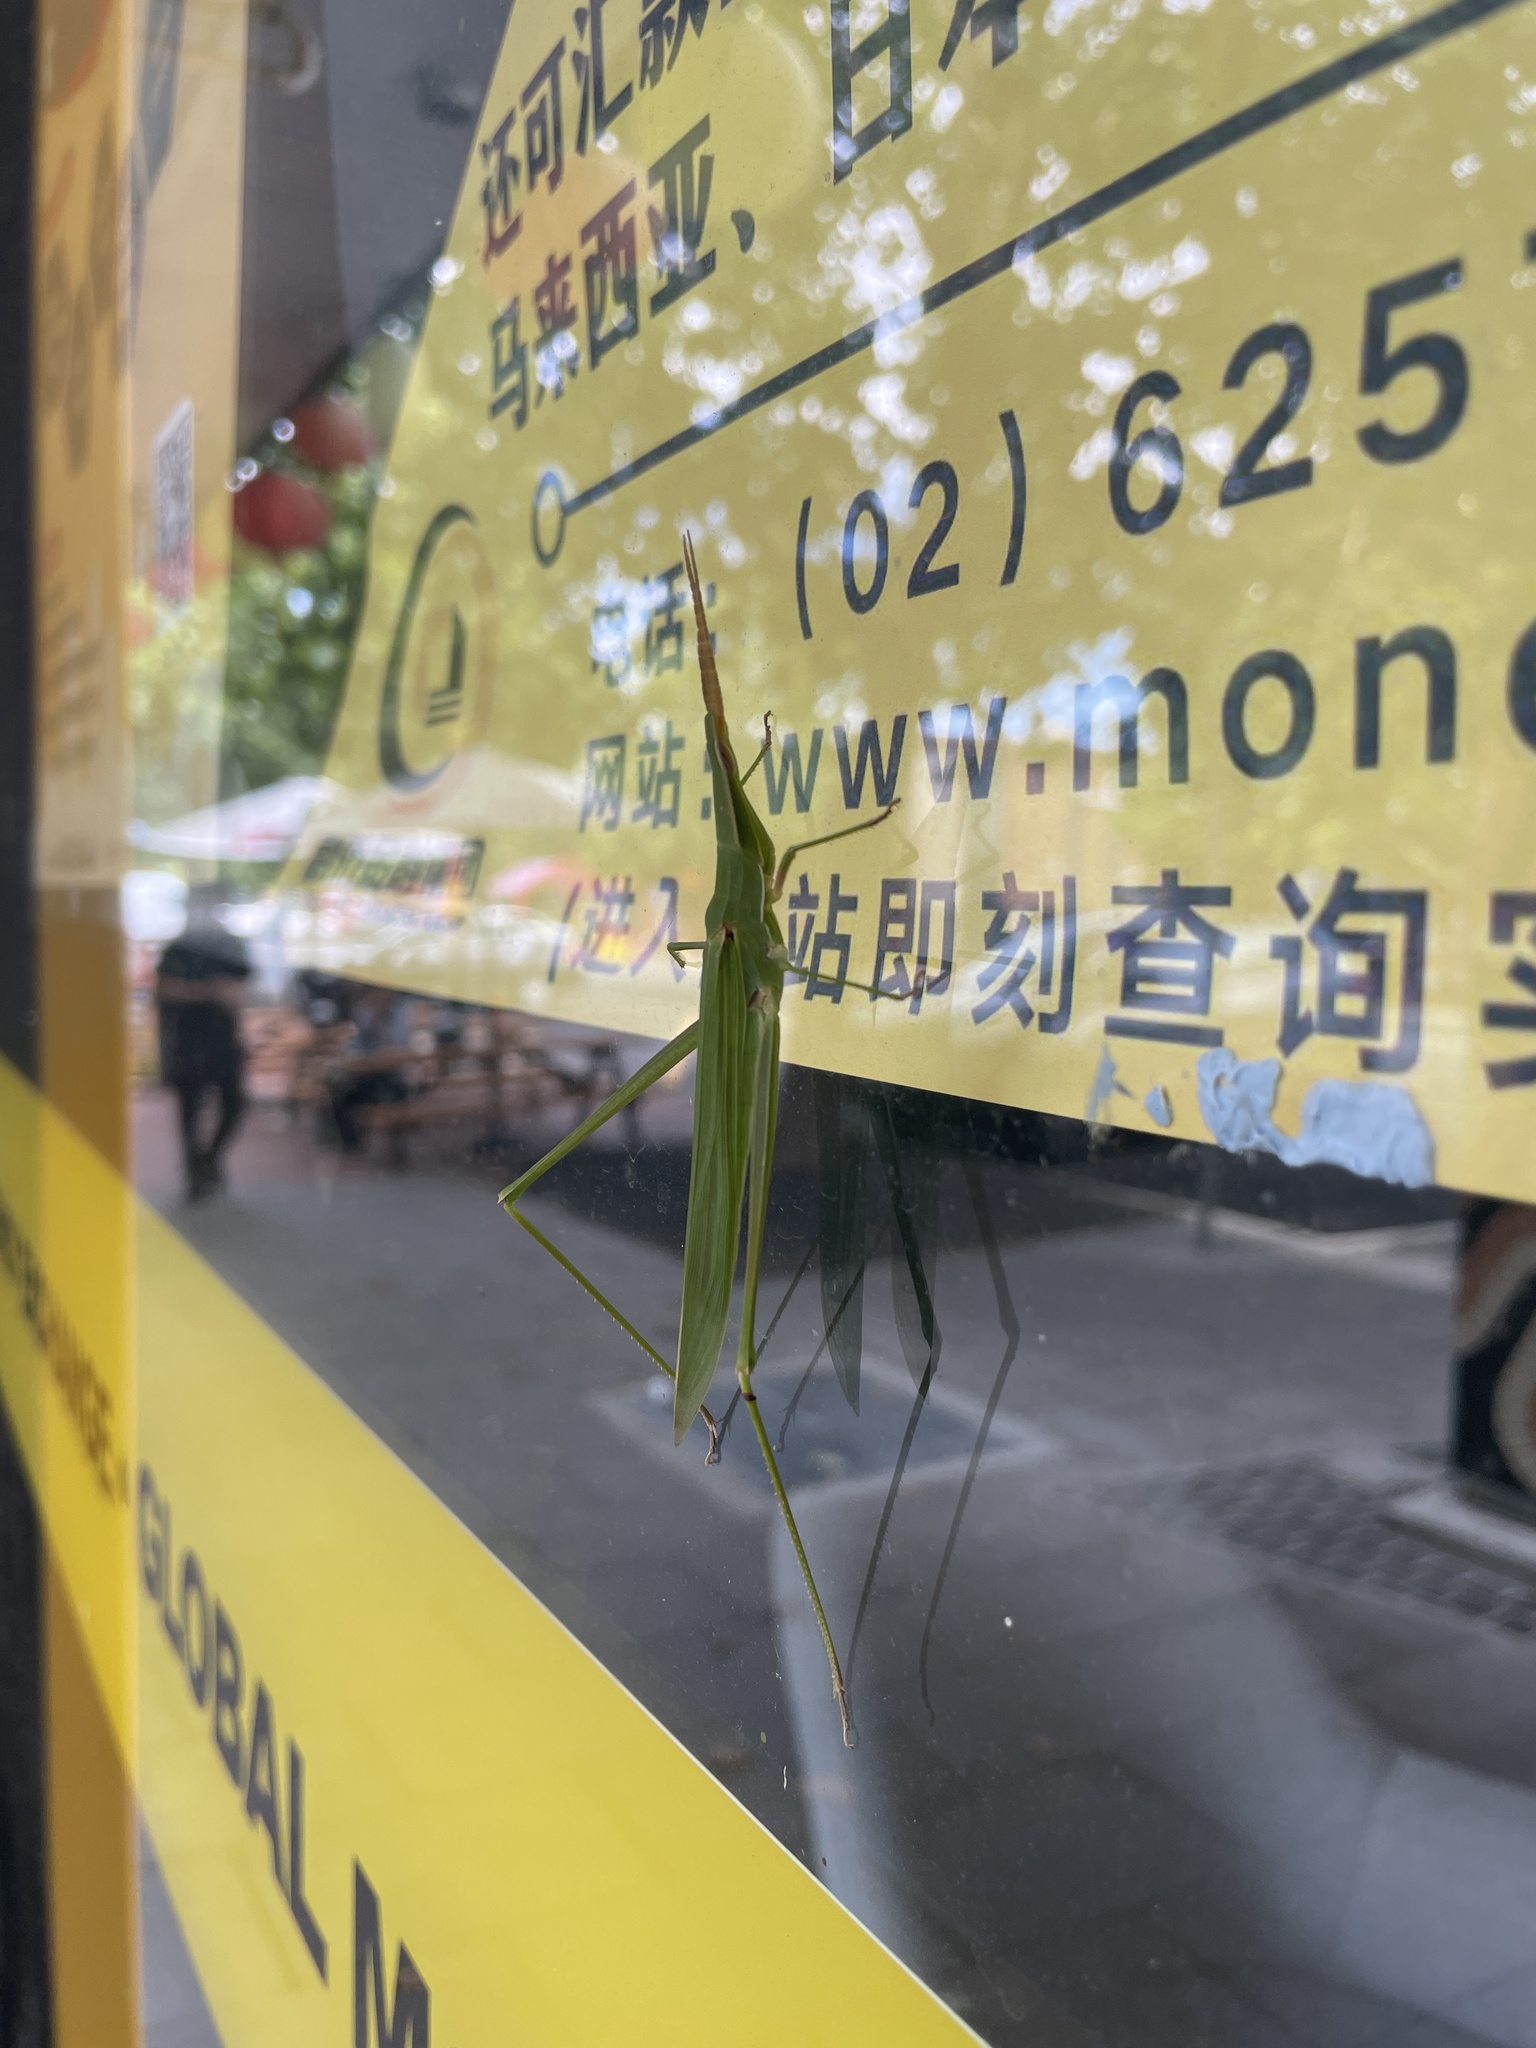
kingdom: Animalia
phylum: Arthropoda
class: Insecta
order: Orthoptera
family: Acrididae
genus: Acrida
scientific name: Acrida conica
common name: Giant green slantface
